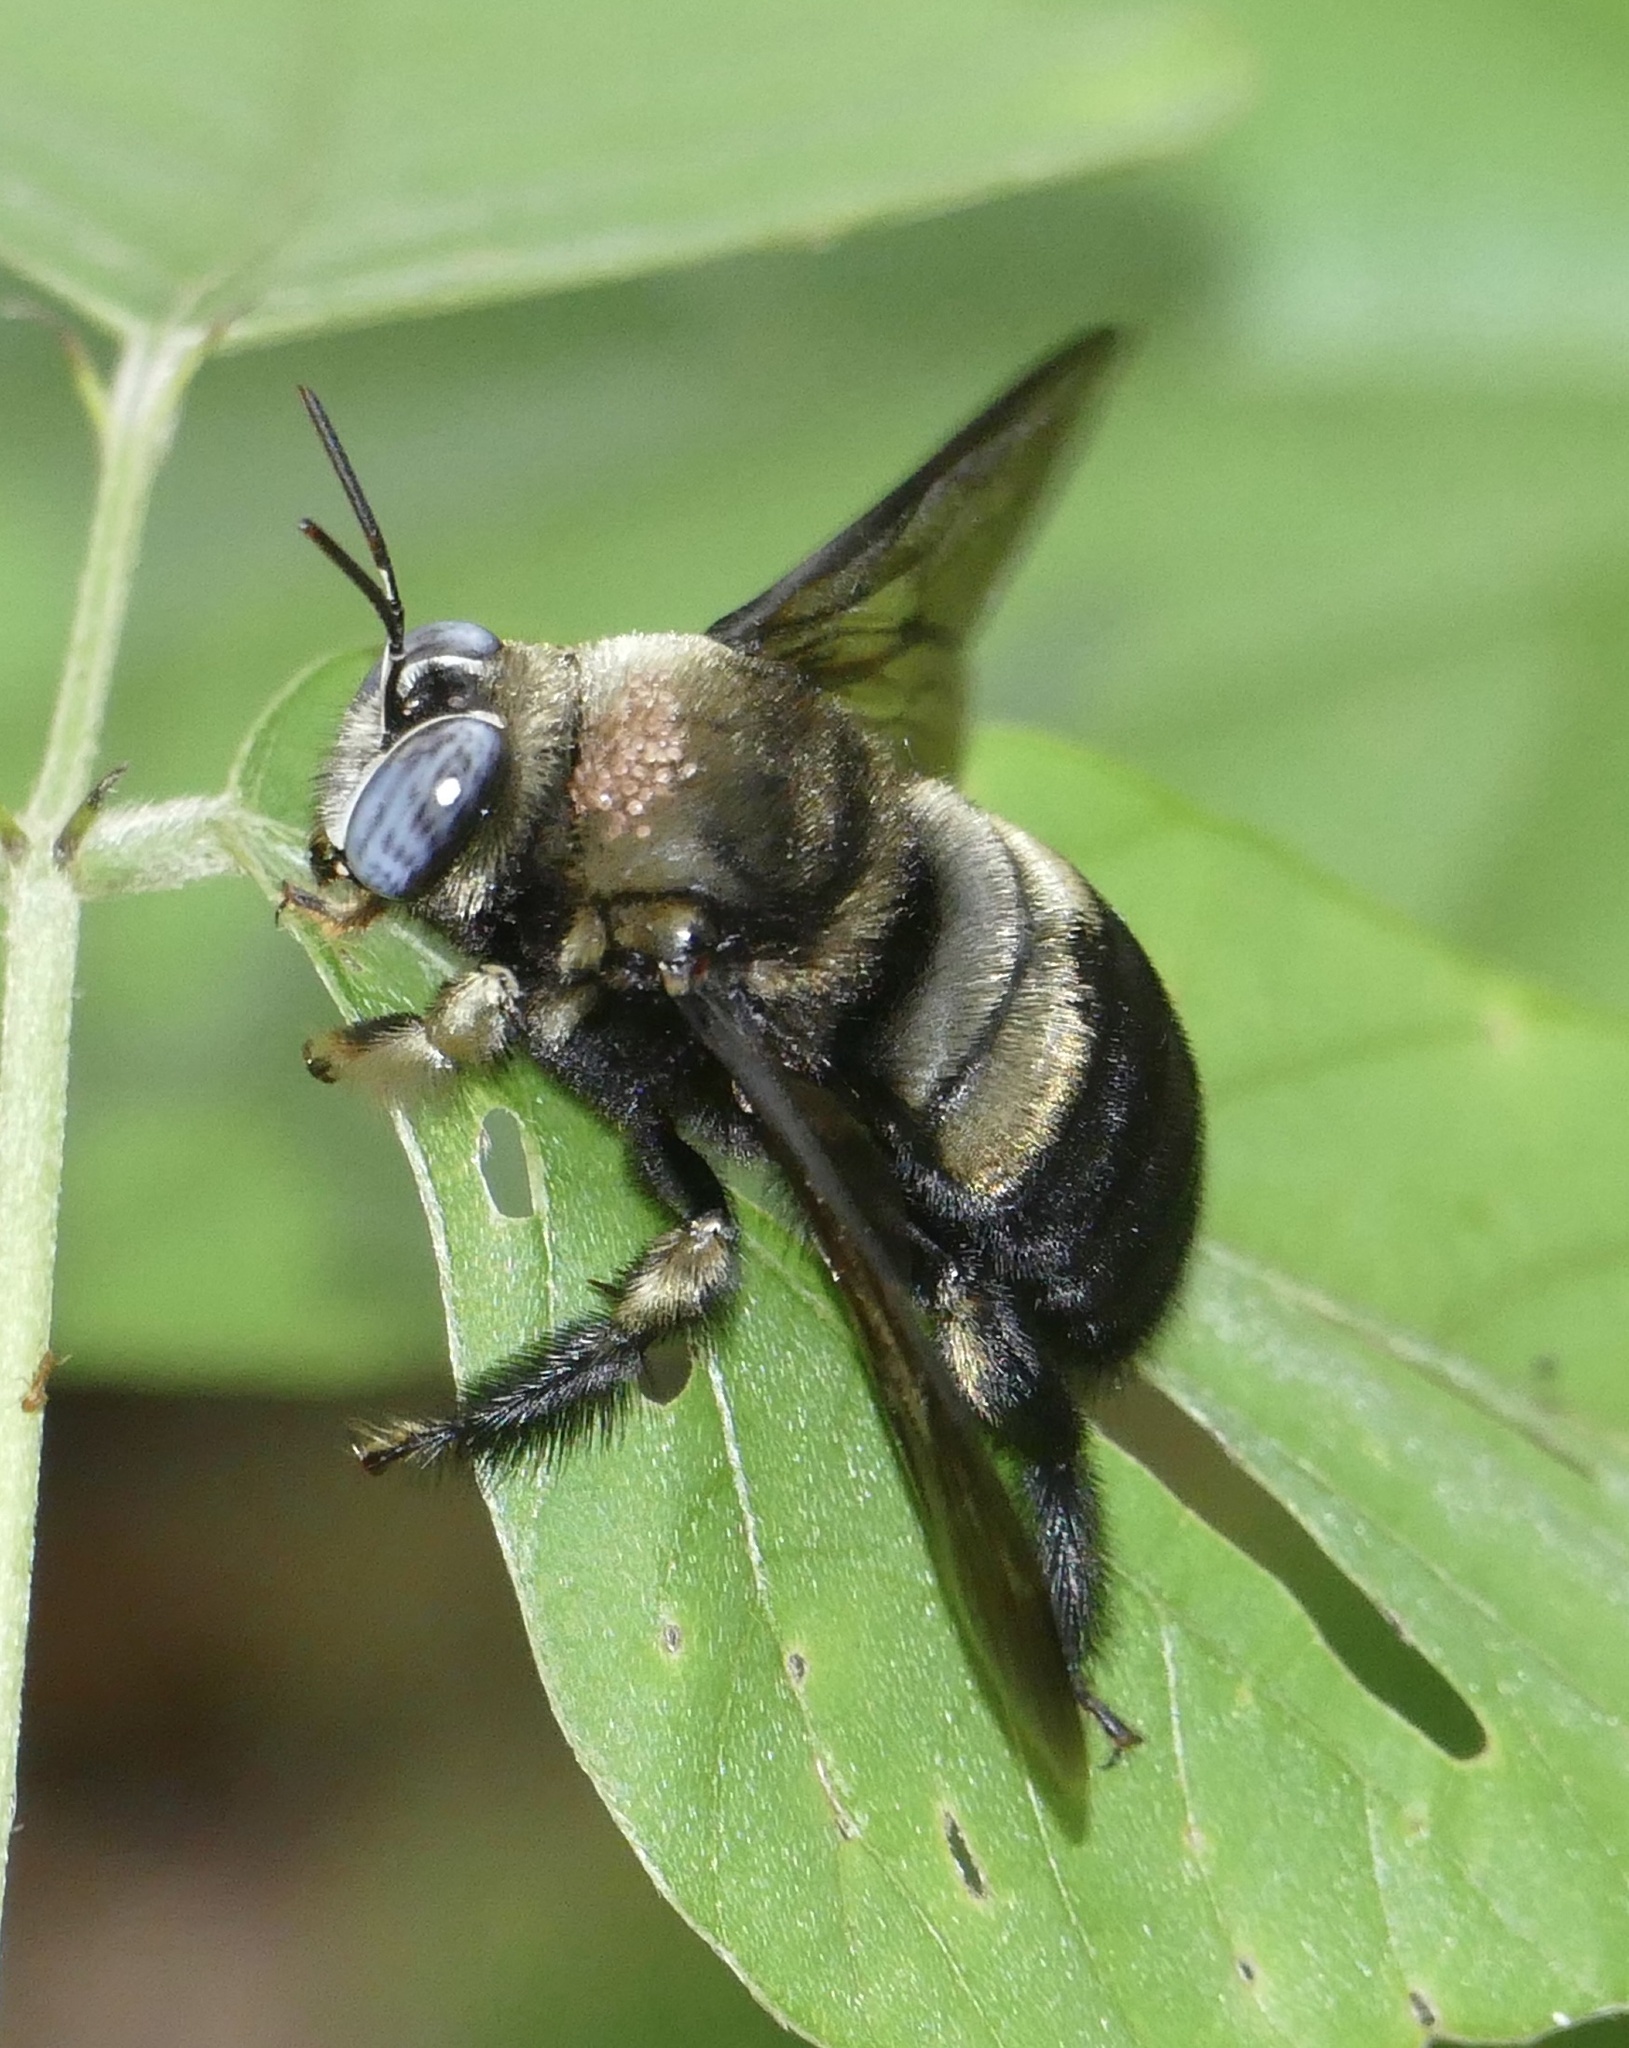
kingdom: Animalia
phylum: Arthropoda
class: Insecta
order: Hymenoptera
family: Apidae
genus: Xylocopa
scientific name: Xylocopa dejeanii
